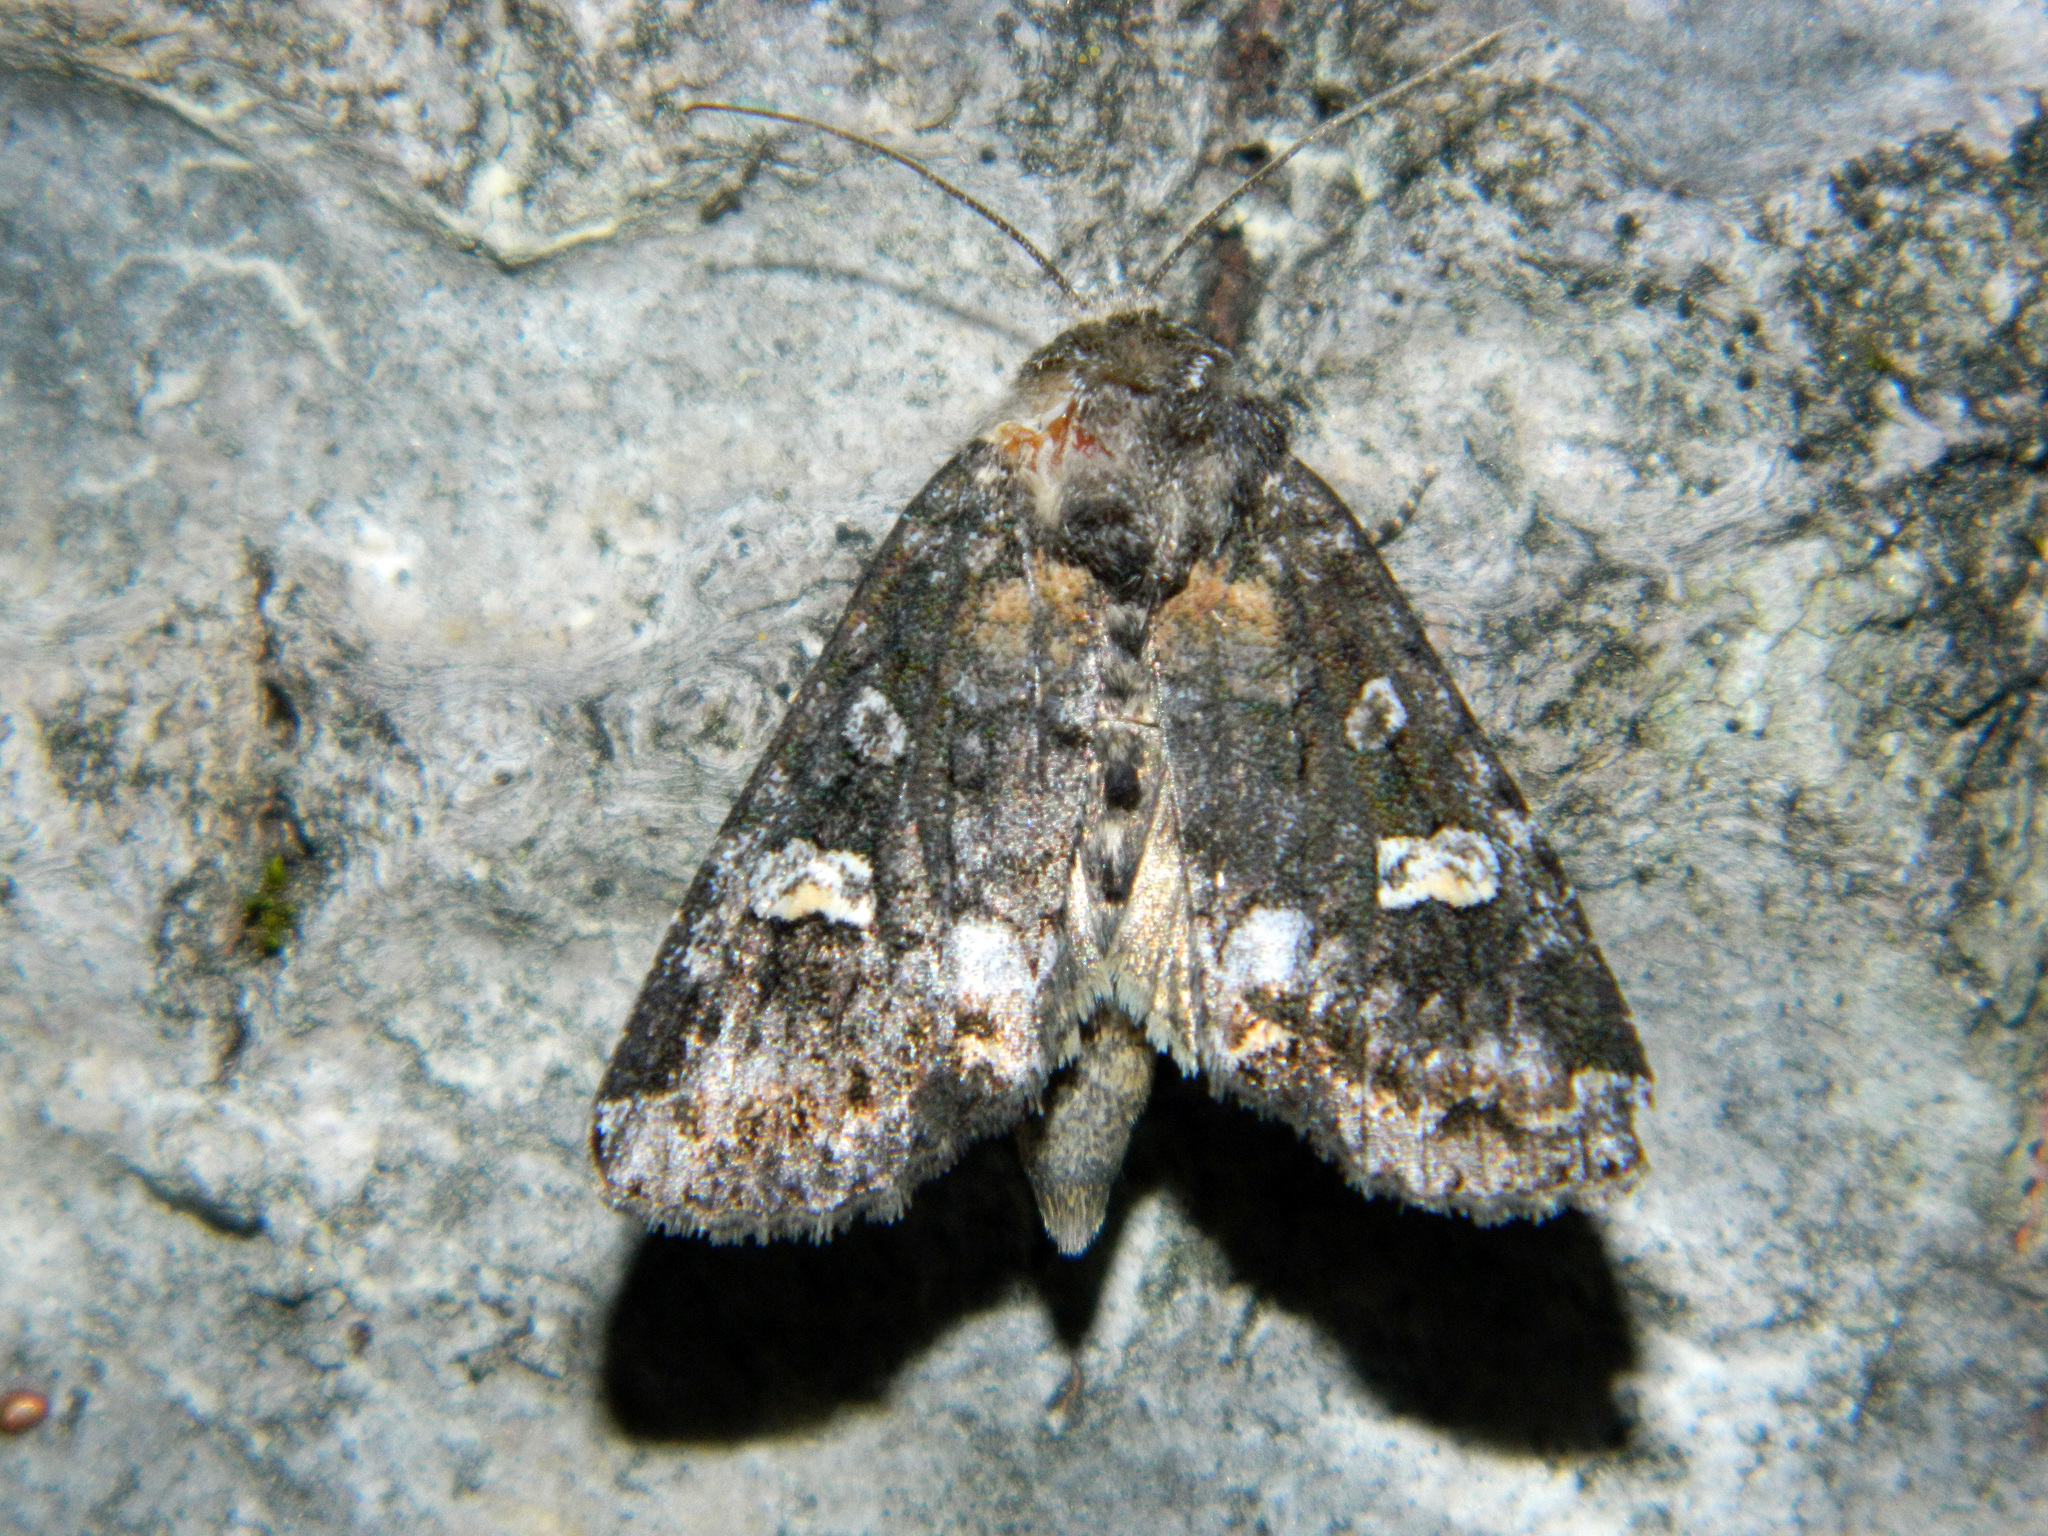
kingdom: Animalia
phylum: Arthropoda
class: Insecta
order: Lepidoptera
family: Noctuidae
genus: Spiramater
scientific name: Spiramater lutra
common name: Otter spiramater moth
